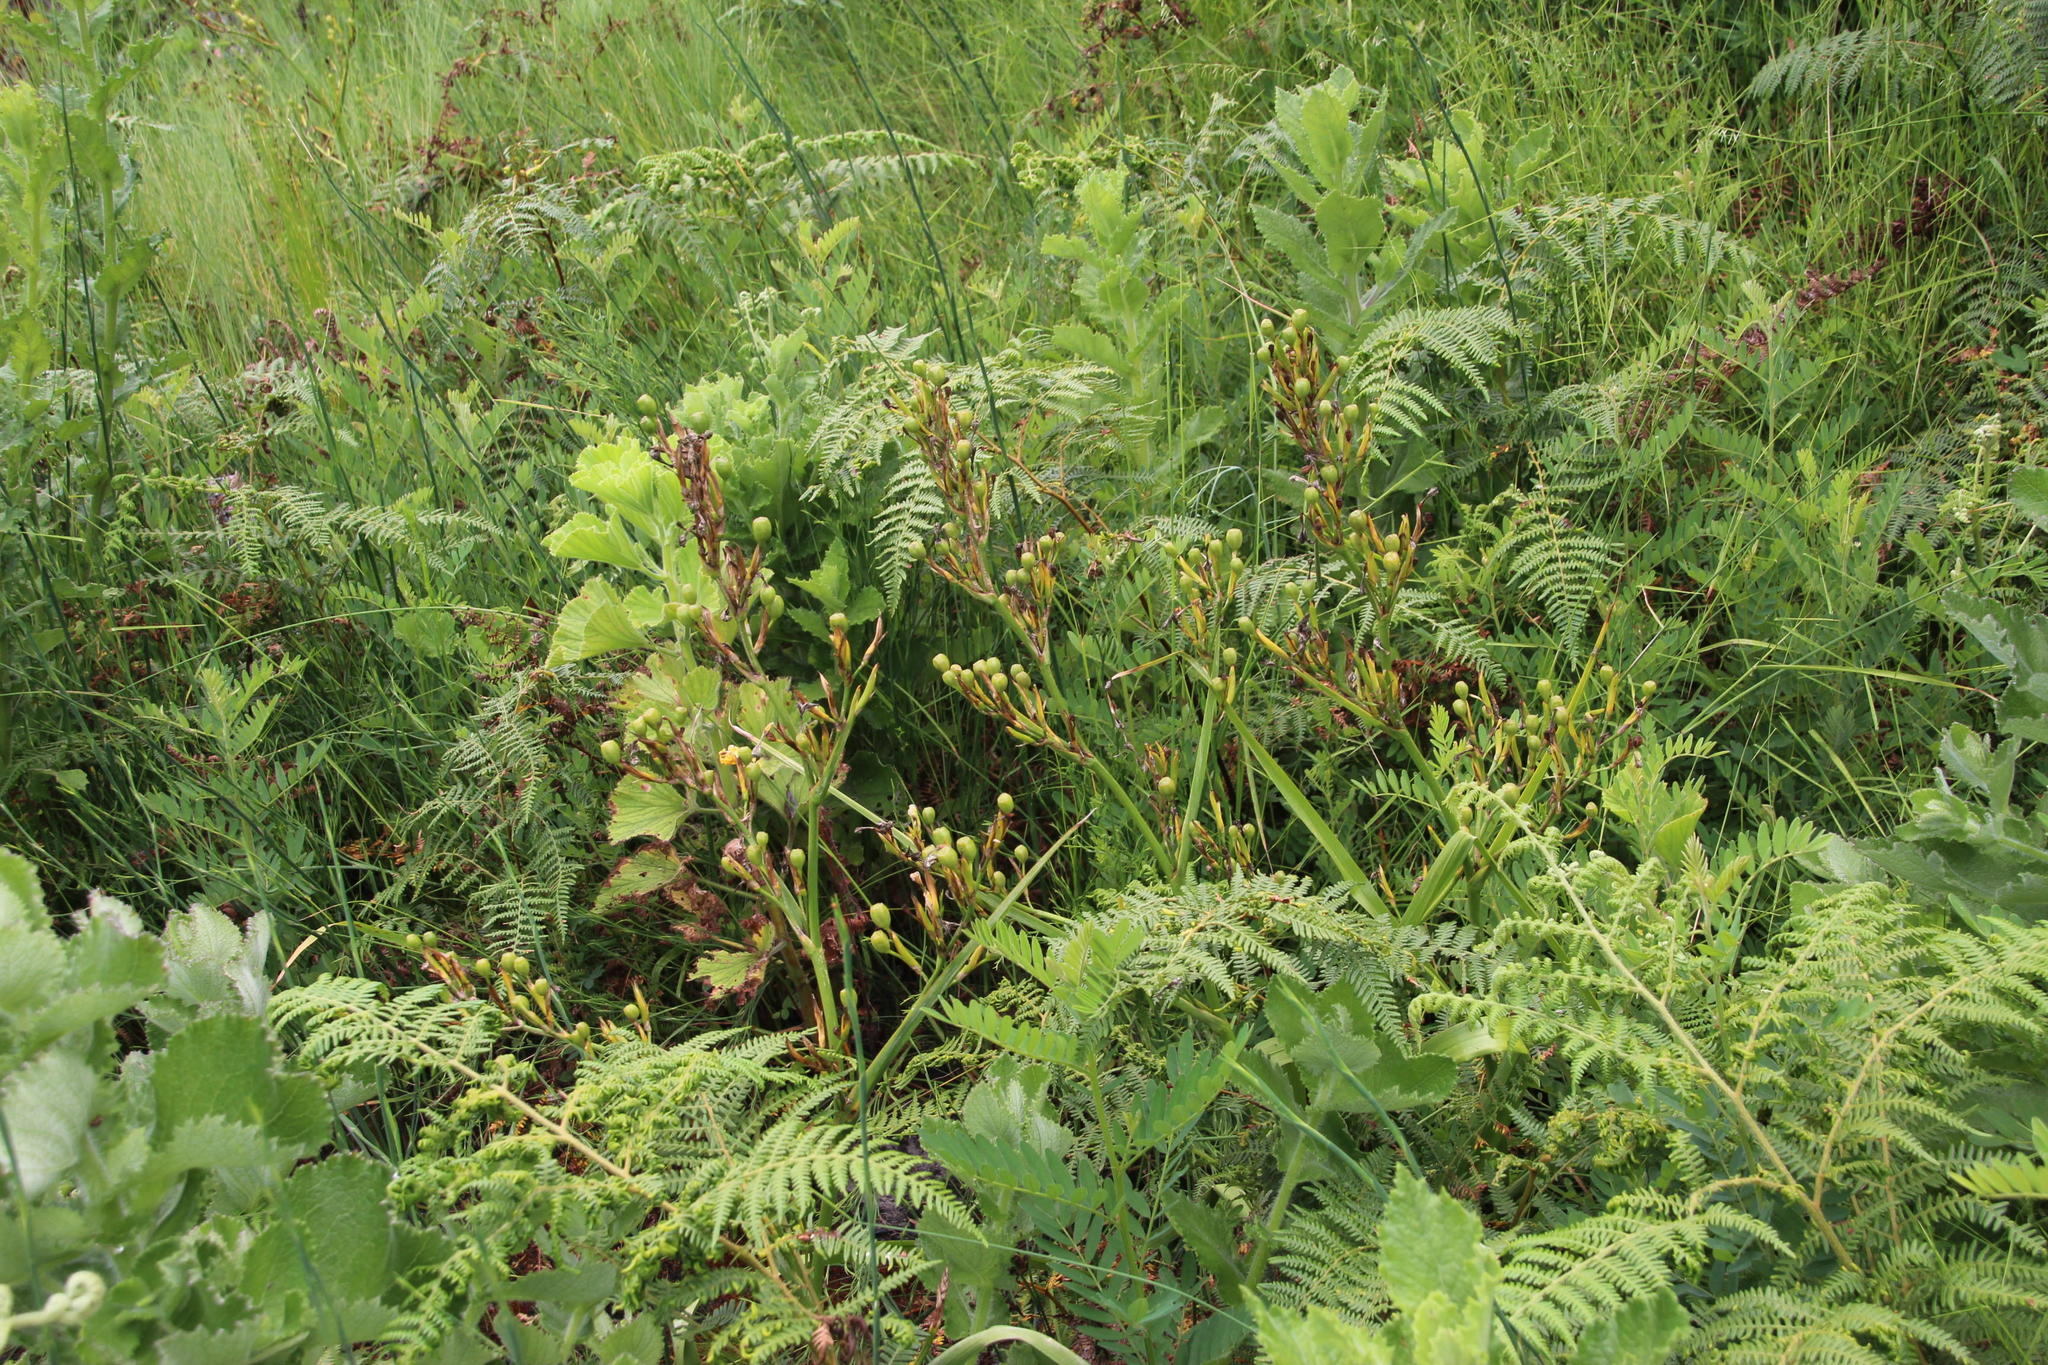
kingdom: Plantae
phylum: Tracheophyta
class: Liliopsida
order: Asparagales
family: Iridaceae
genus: Moraea
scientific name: Moraea ramosissima
